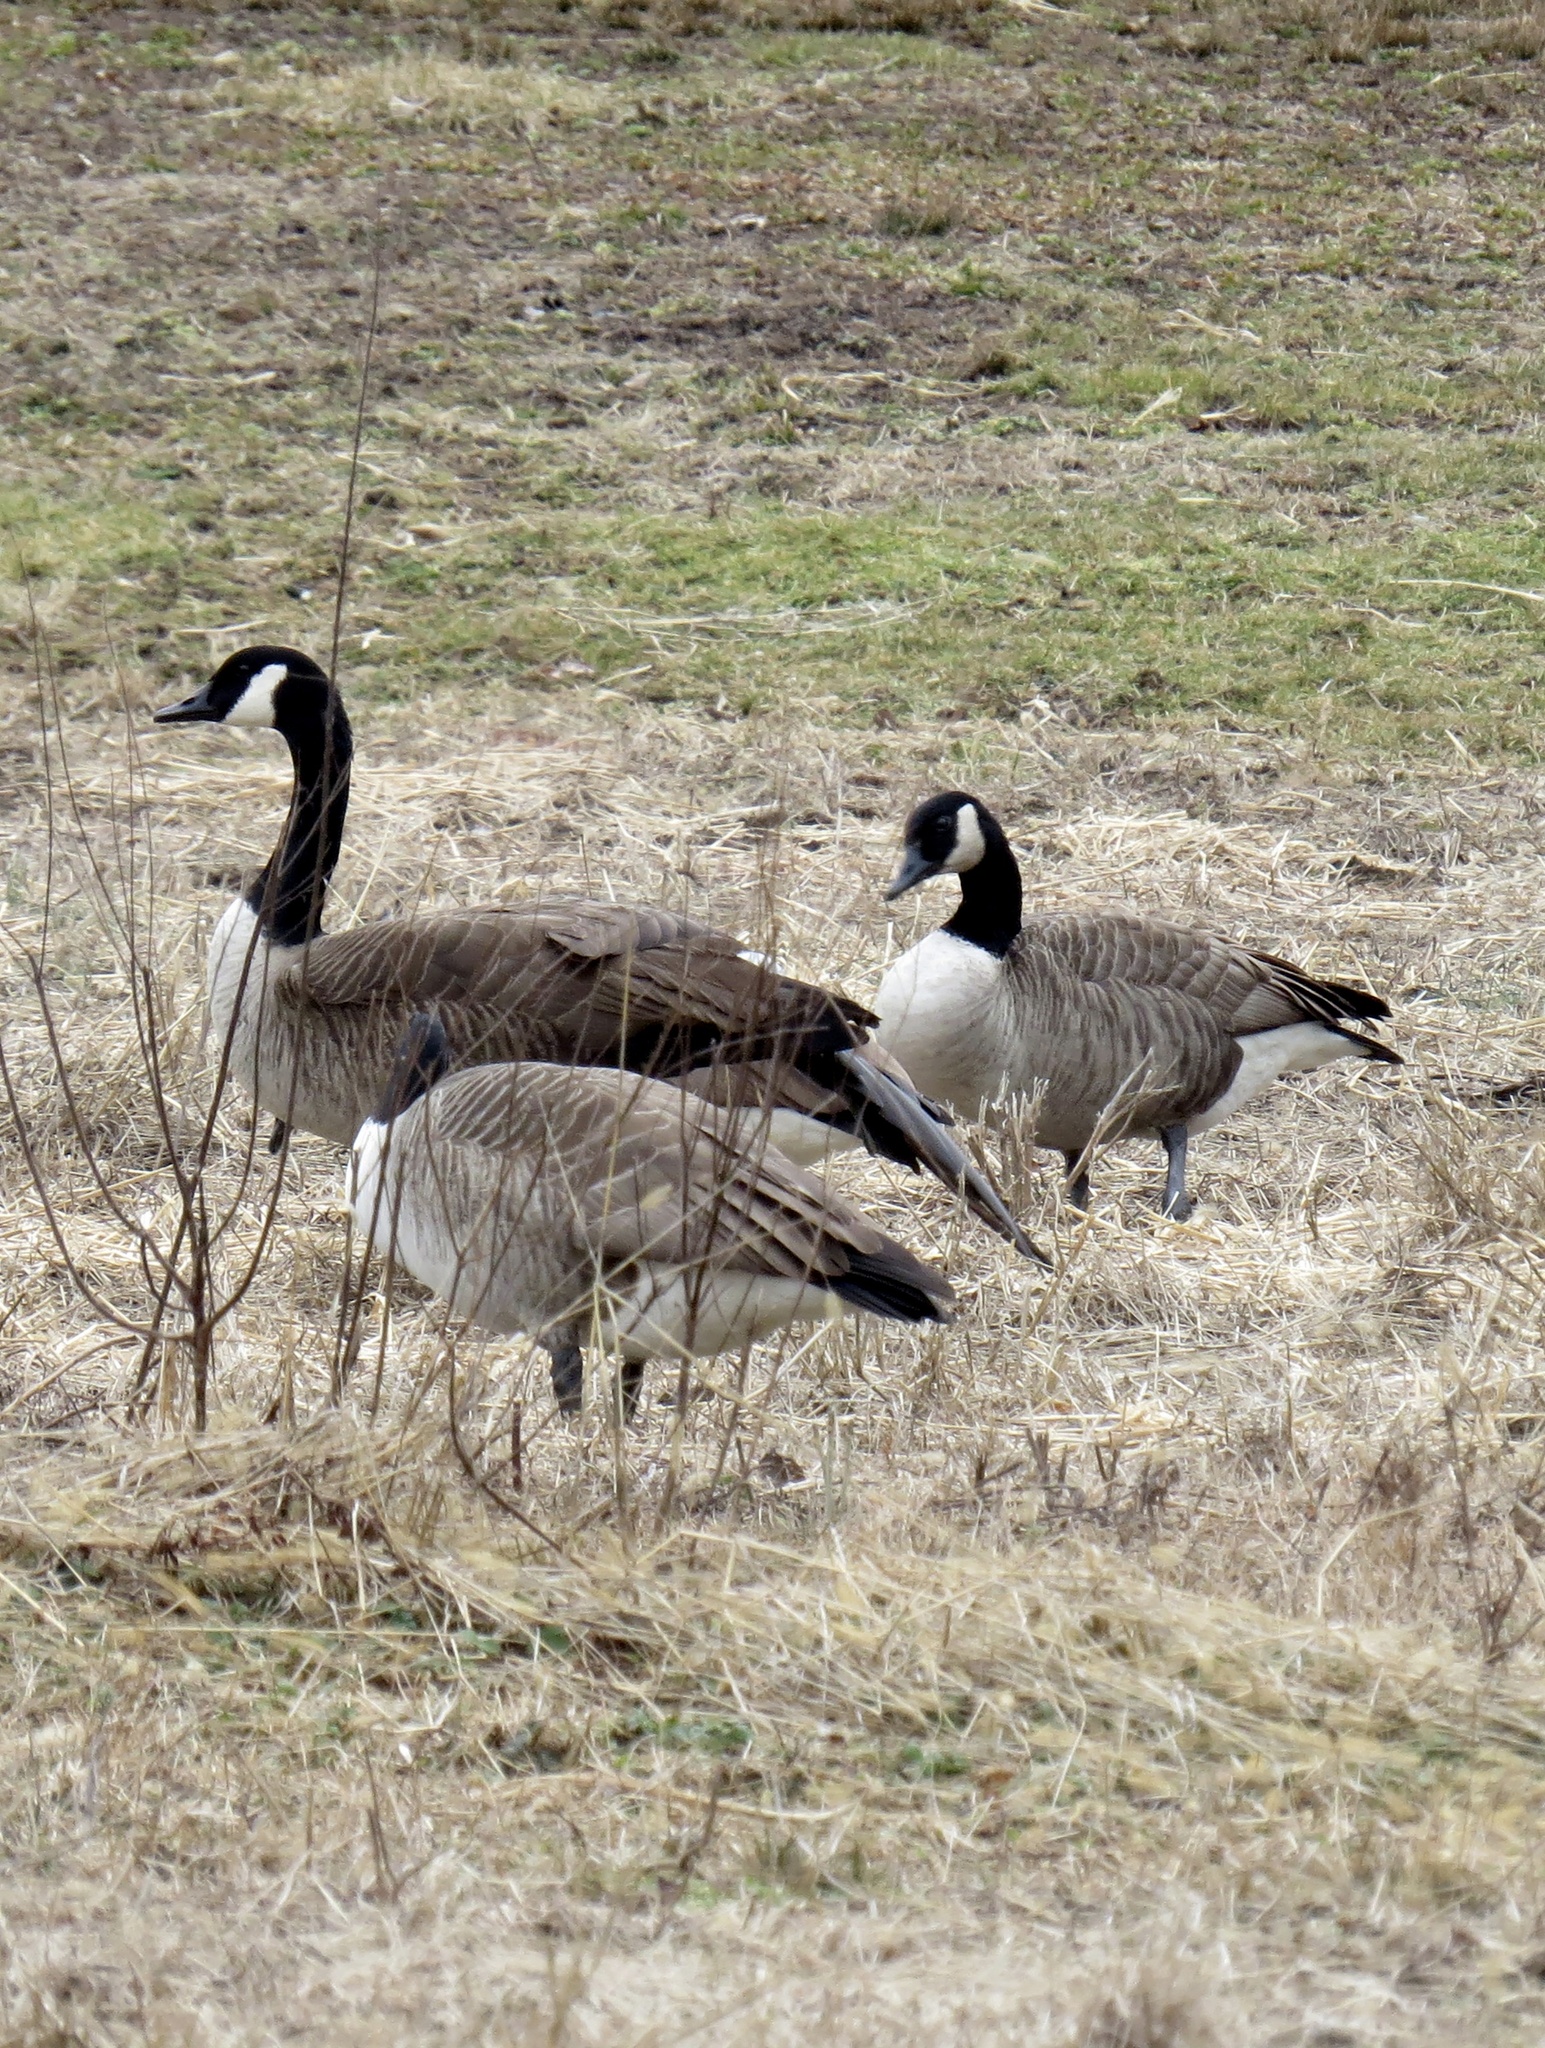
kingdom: Animalia
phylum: Chordata
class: Aves
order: Anseriformes
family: Anatidae
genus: Branta
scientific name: Branta canadensis
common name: Canada goose
